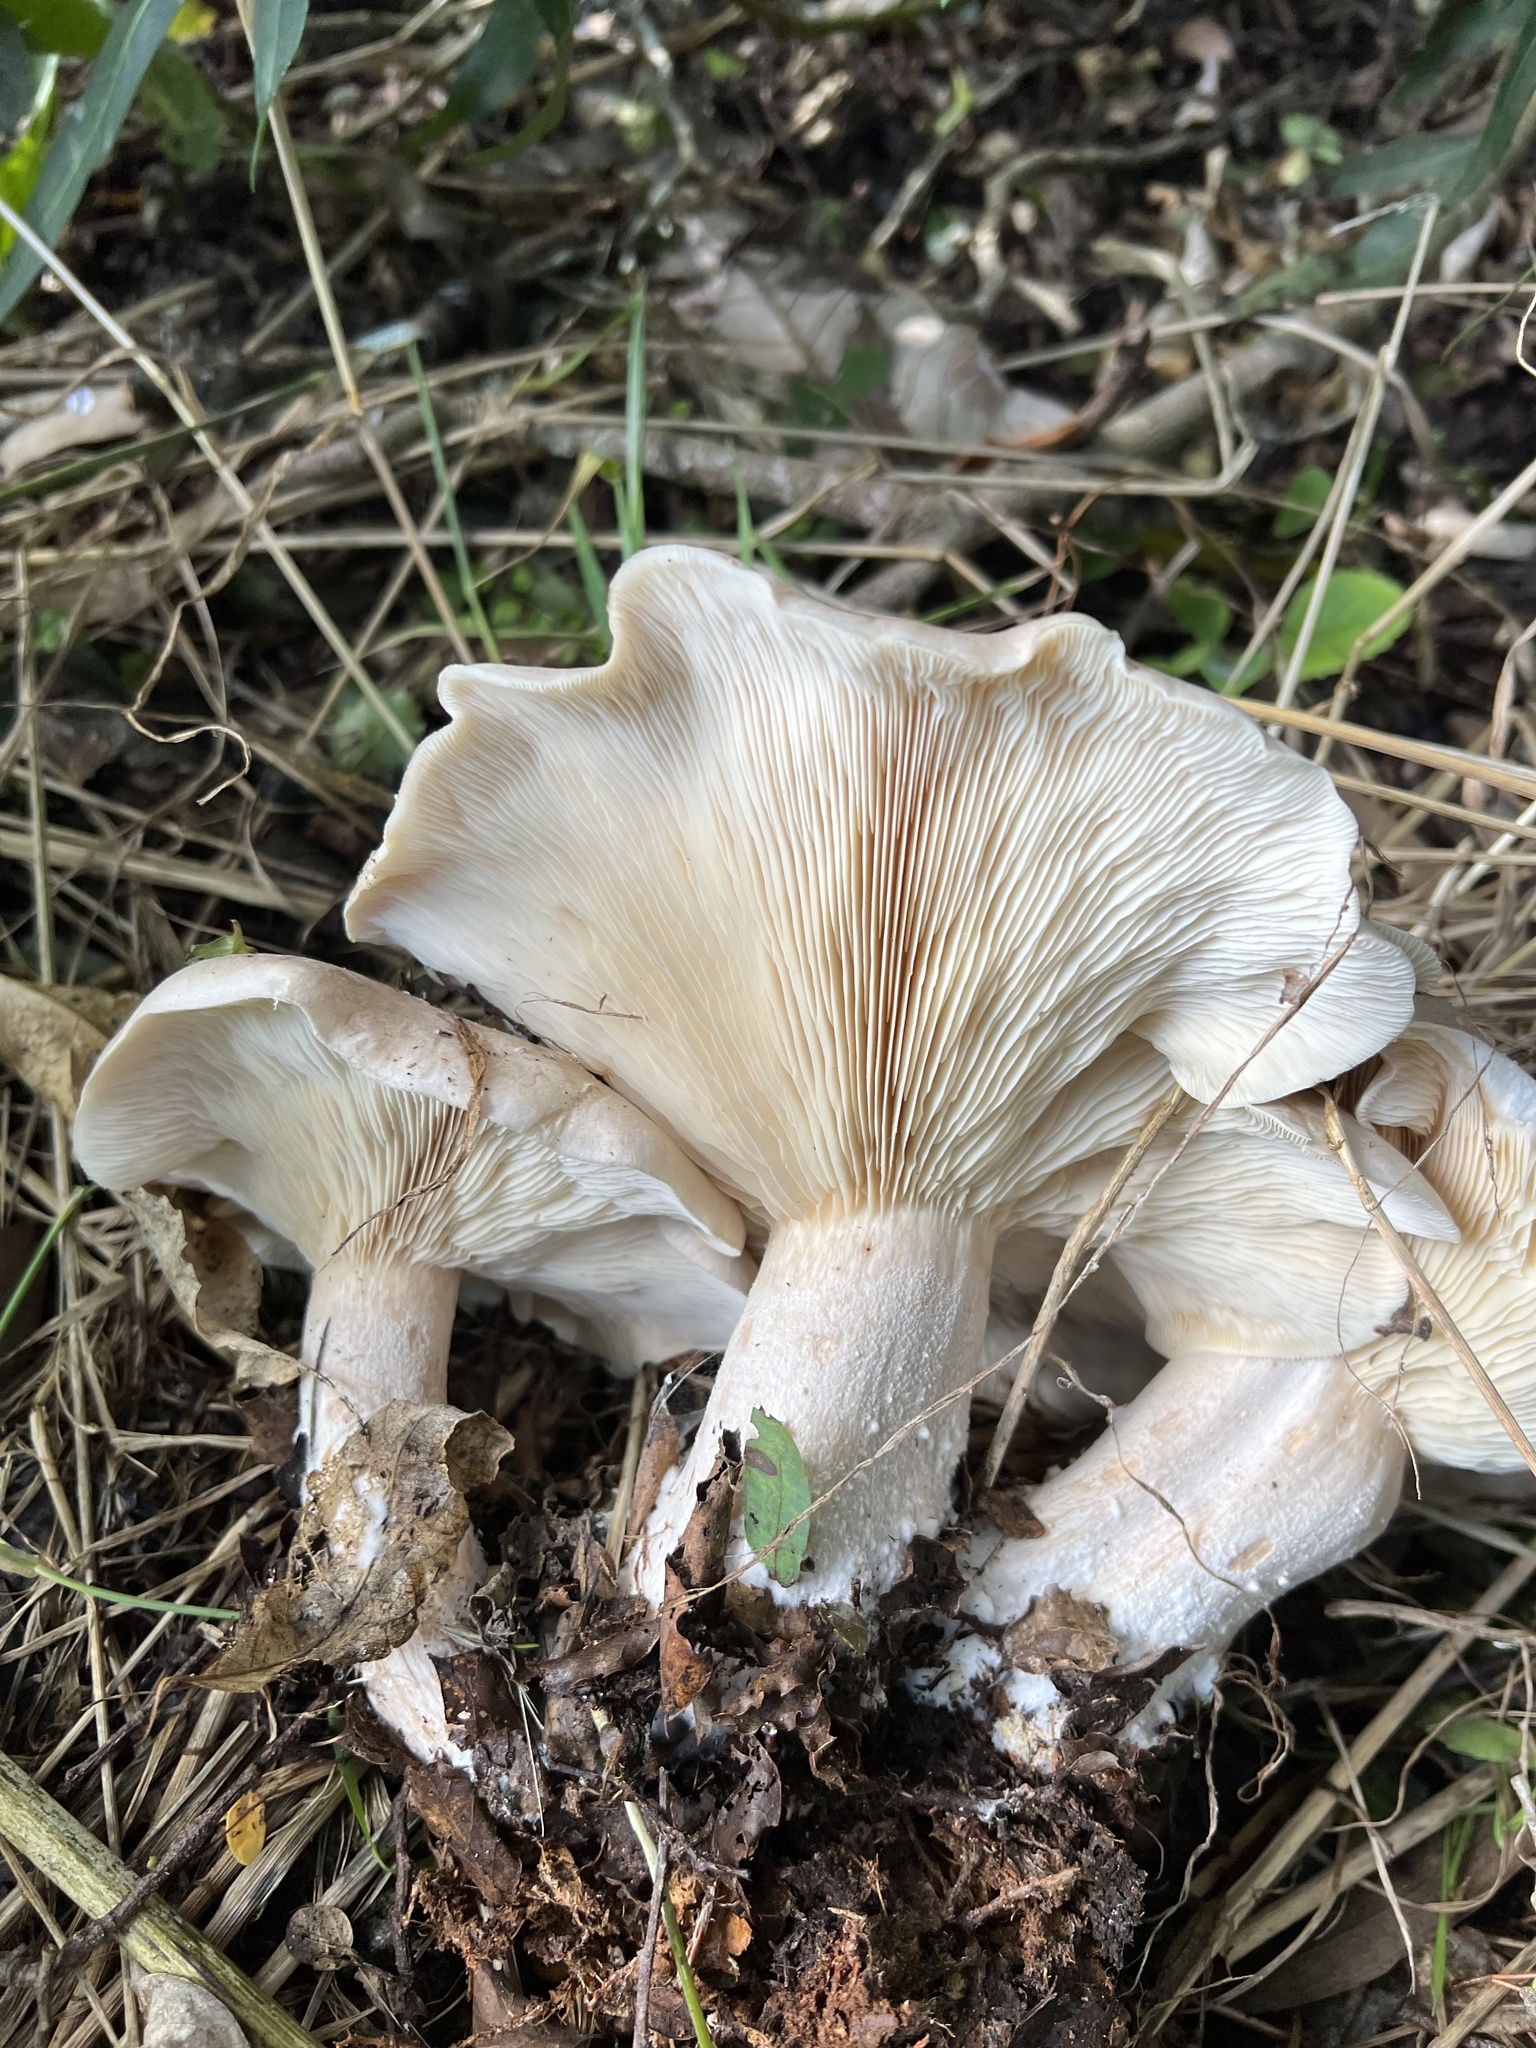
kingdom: Fungi
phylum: Basidiomycota
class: Agaricomycetes
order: Agaricales
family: Tricholomataceae
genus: Clitocybe
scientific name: Clitocybe nebularis
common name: Clouded agaric
